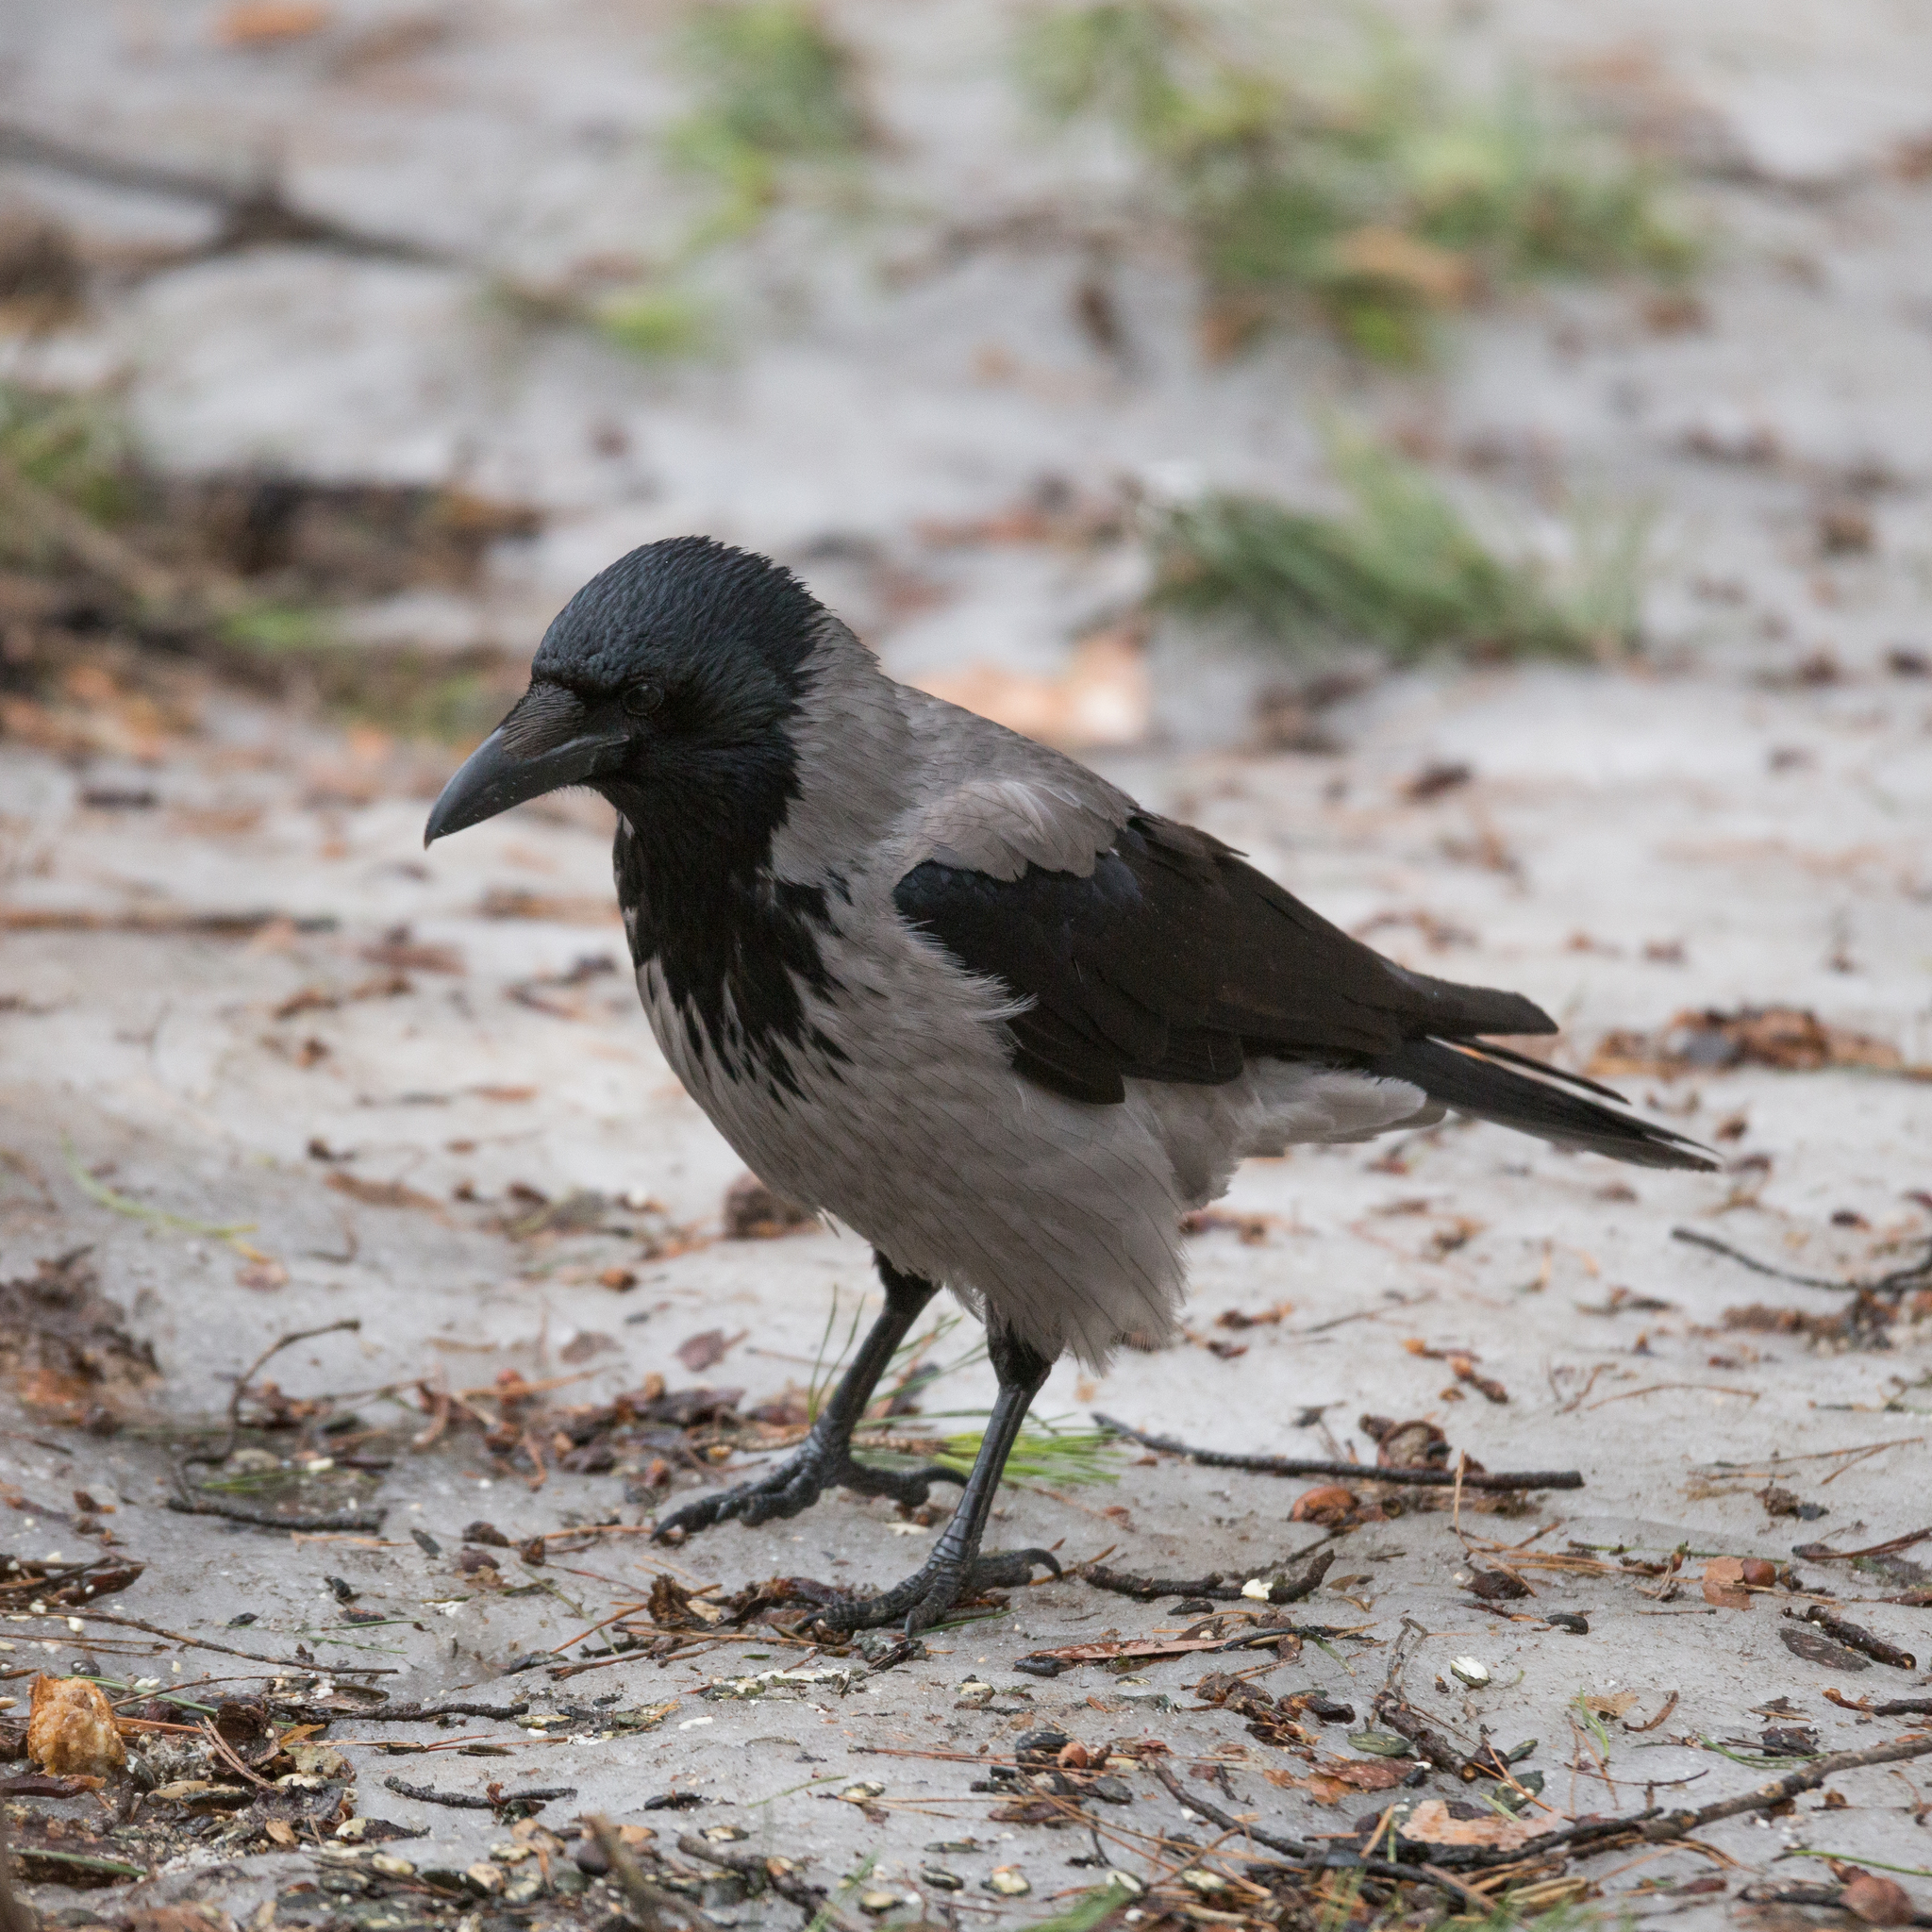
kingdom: Animalia
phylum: Chordata
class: Aves
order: Passeriformes
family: Corvidae
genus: Corvus
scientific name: Corvus cornix
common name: Hooded crow
